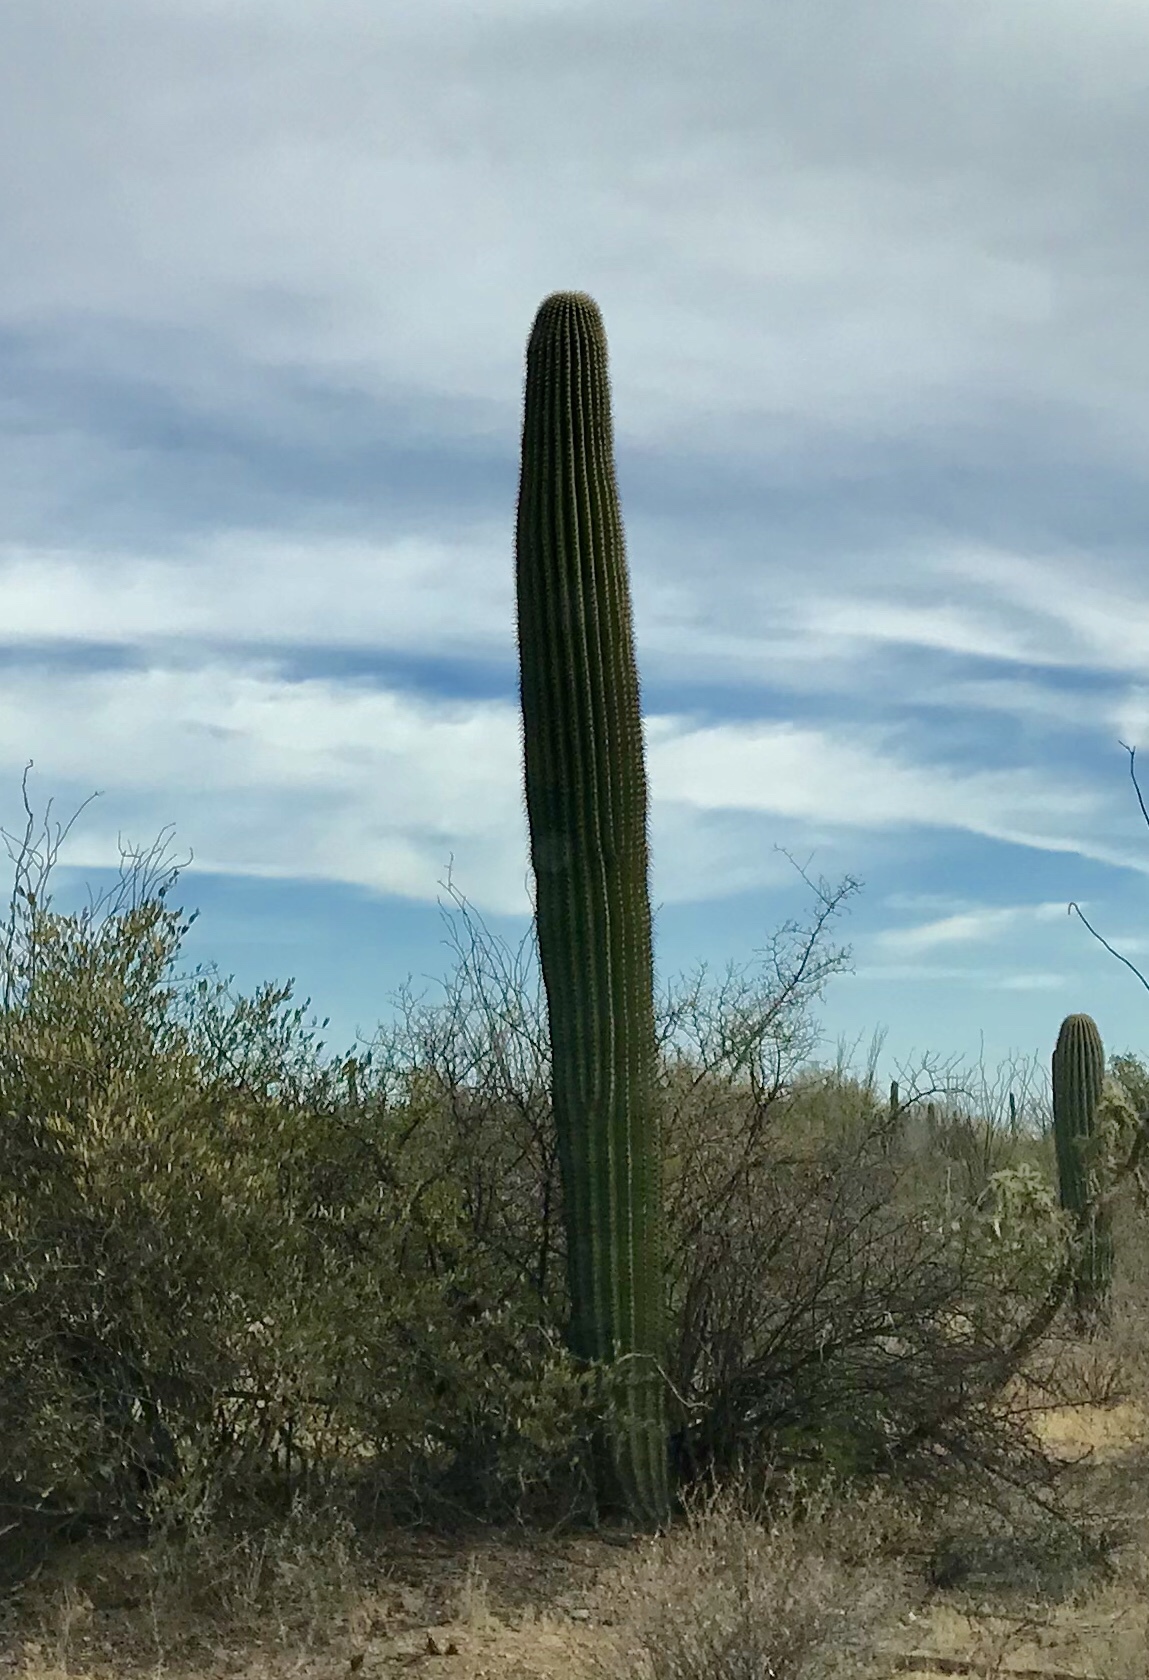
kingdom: Plantae
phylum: Tracheophyta
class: Magnoliopsida
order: Caryophyllales
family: Cactaceae
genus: Carnegiea
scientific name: Carnegiea gigantea
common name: Saguaro
